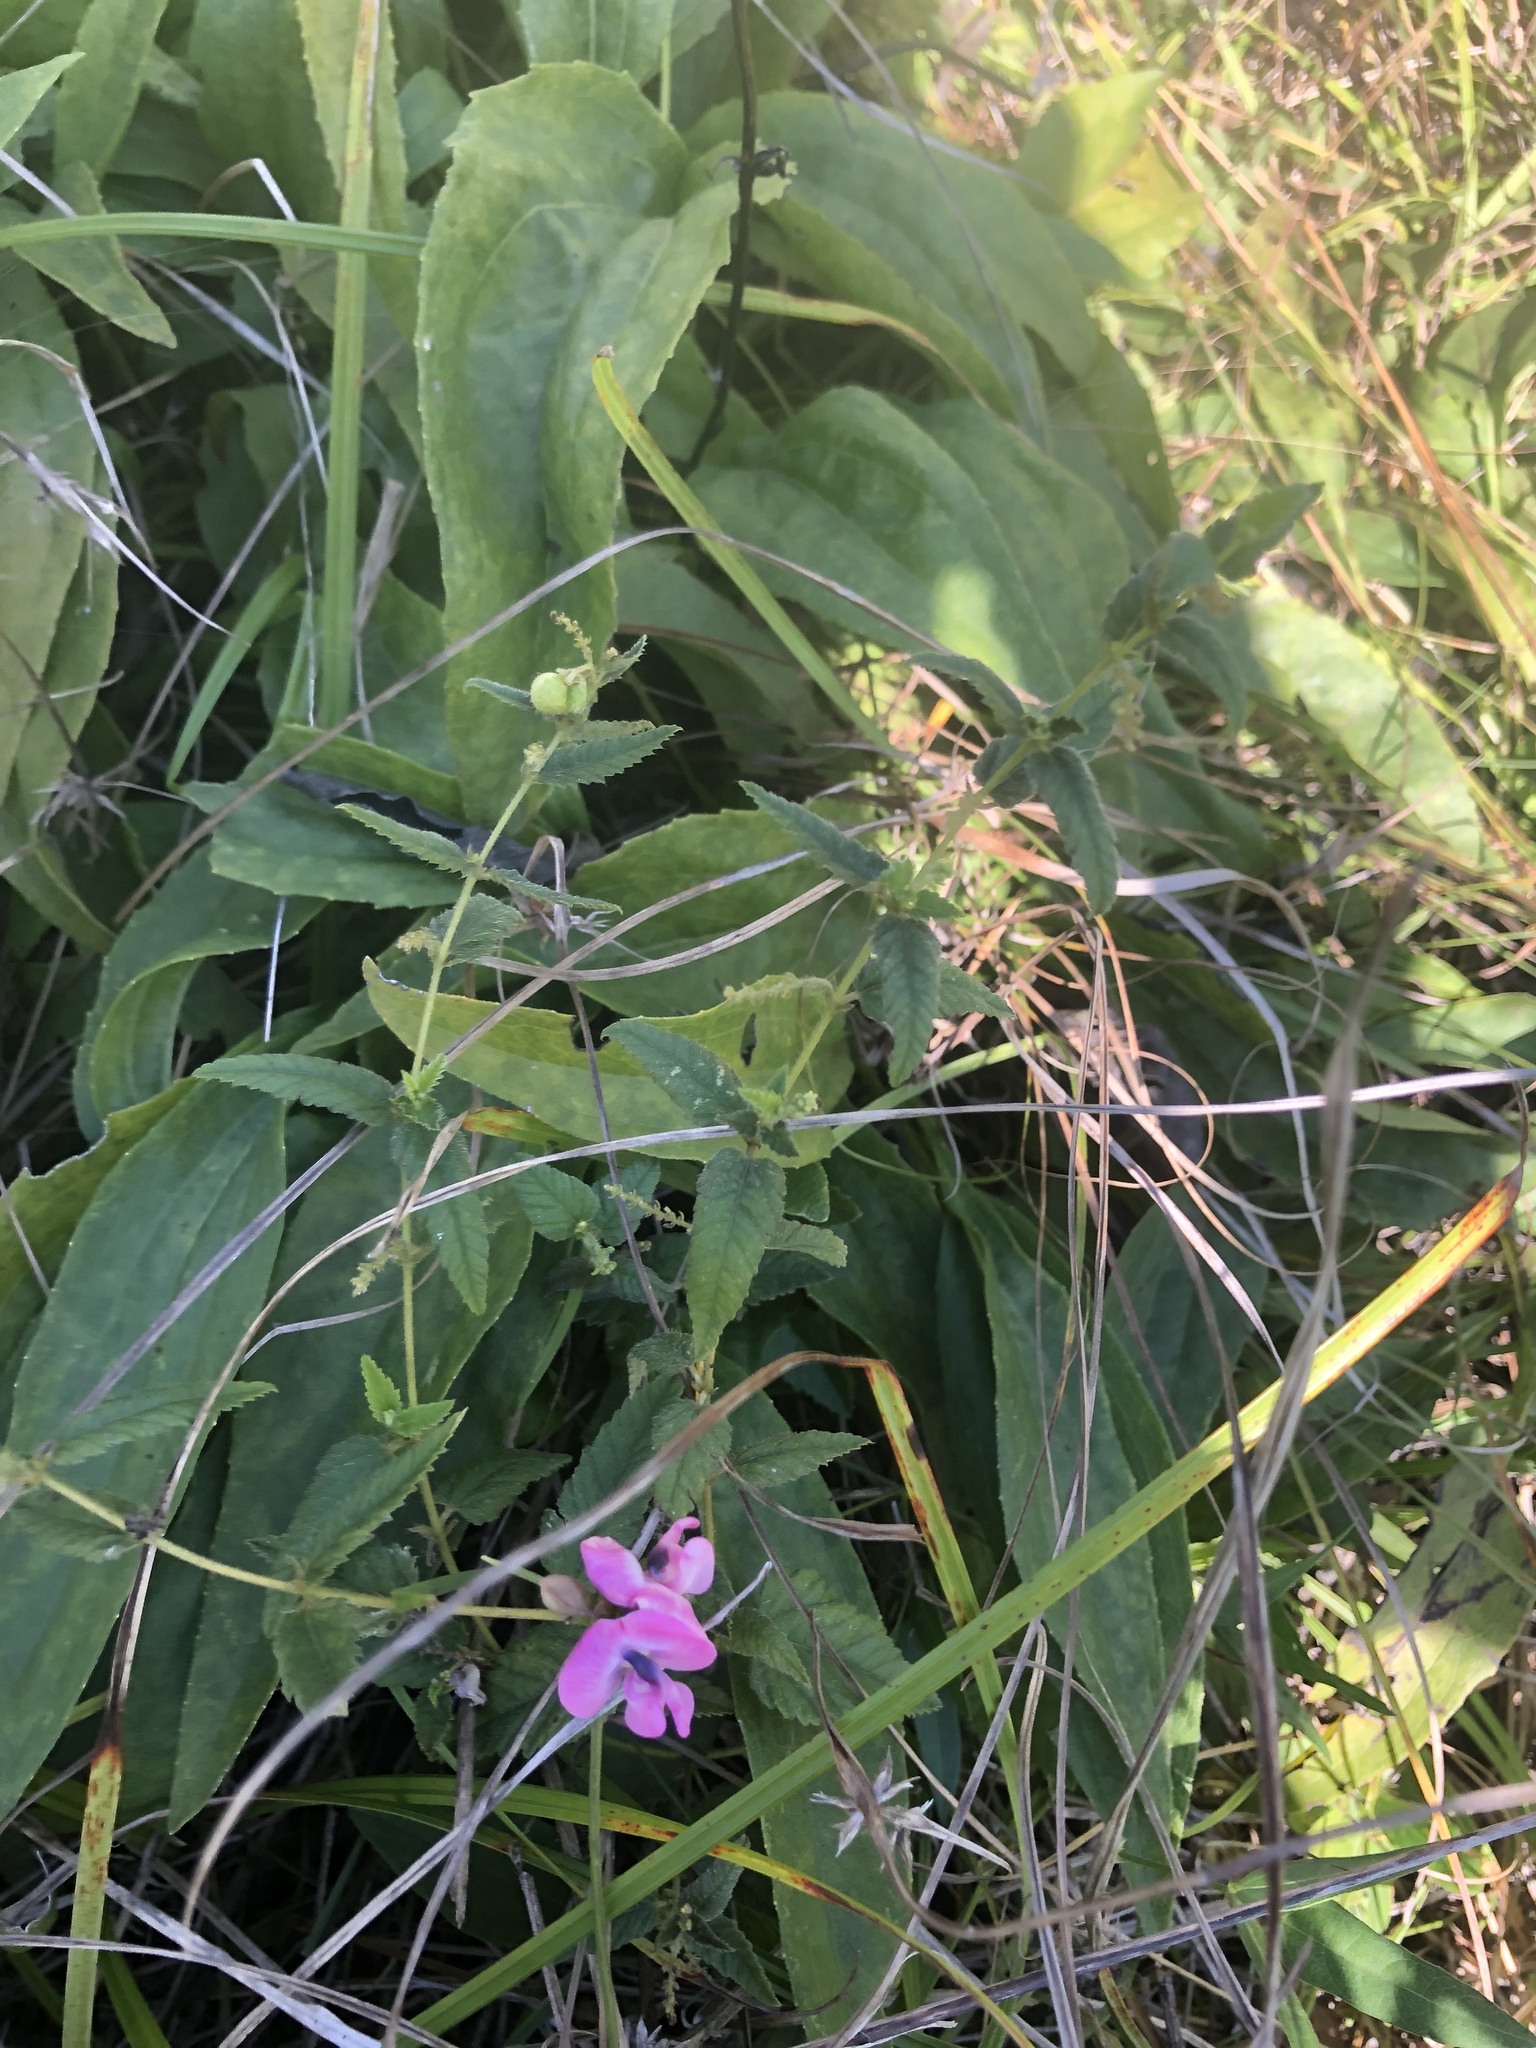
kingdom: Plantae
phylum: Tracheophyta
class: Magnoliopsida
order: Malpighiales
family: Euphorbiaceae
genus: Tragia
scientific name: Tragia urticifolia
